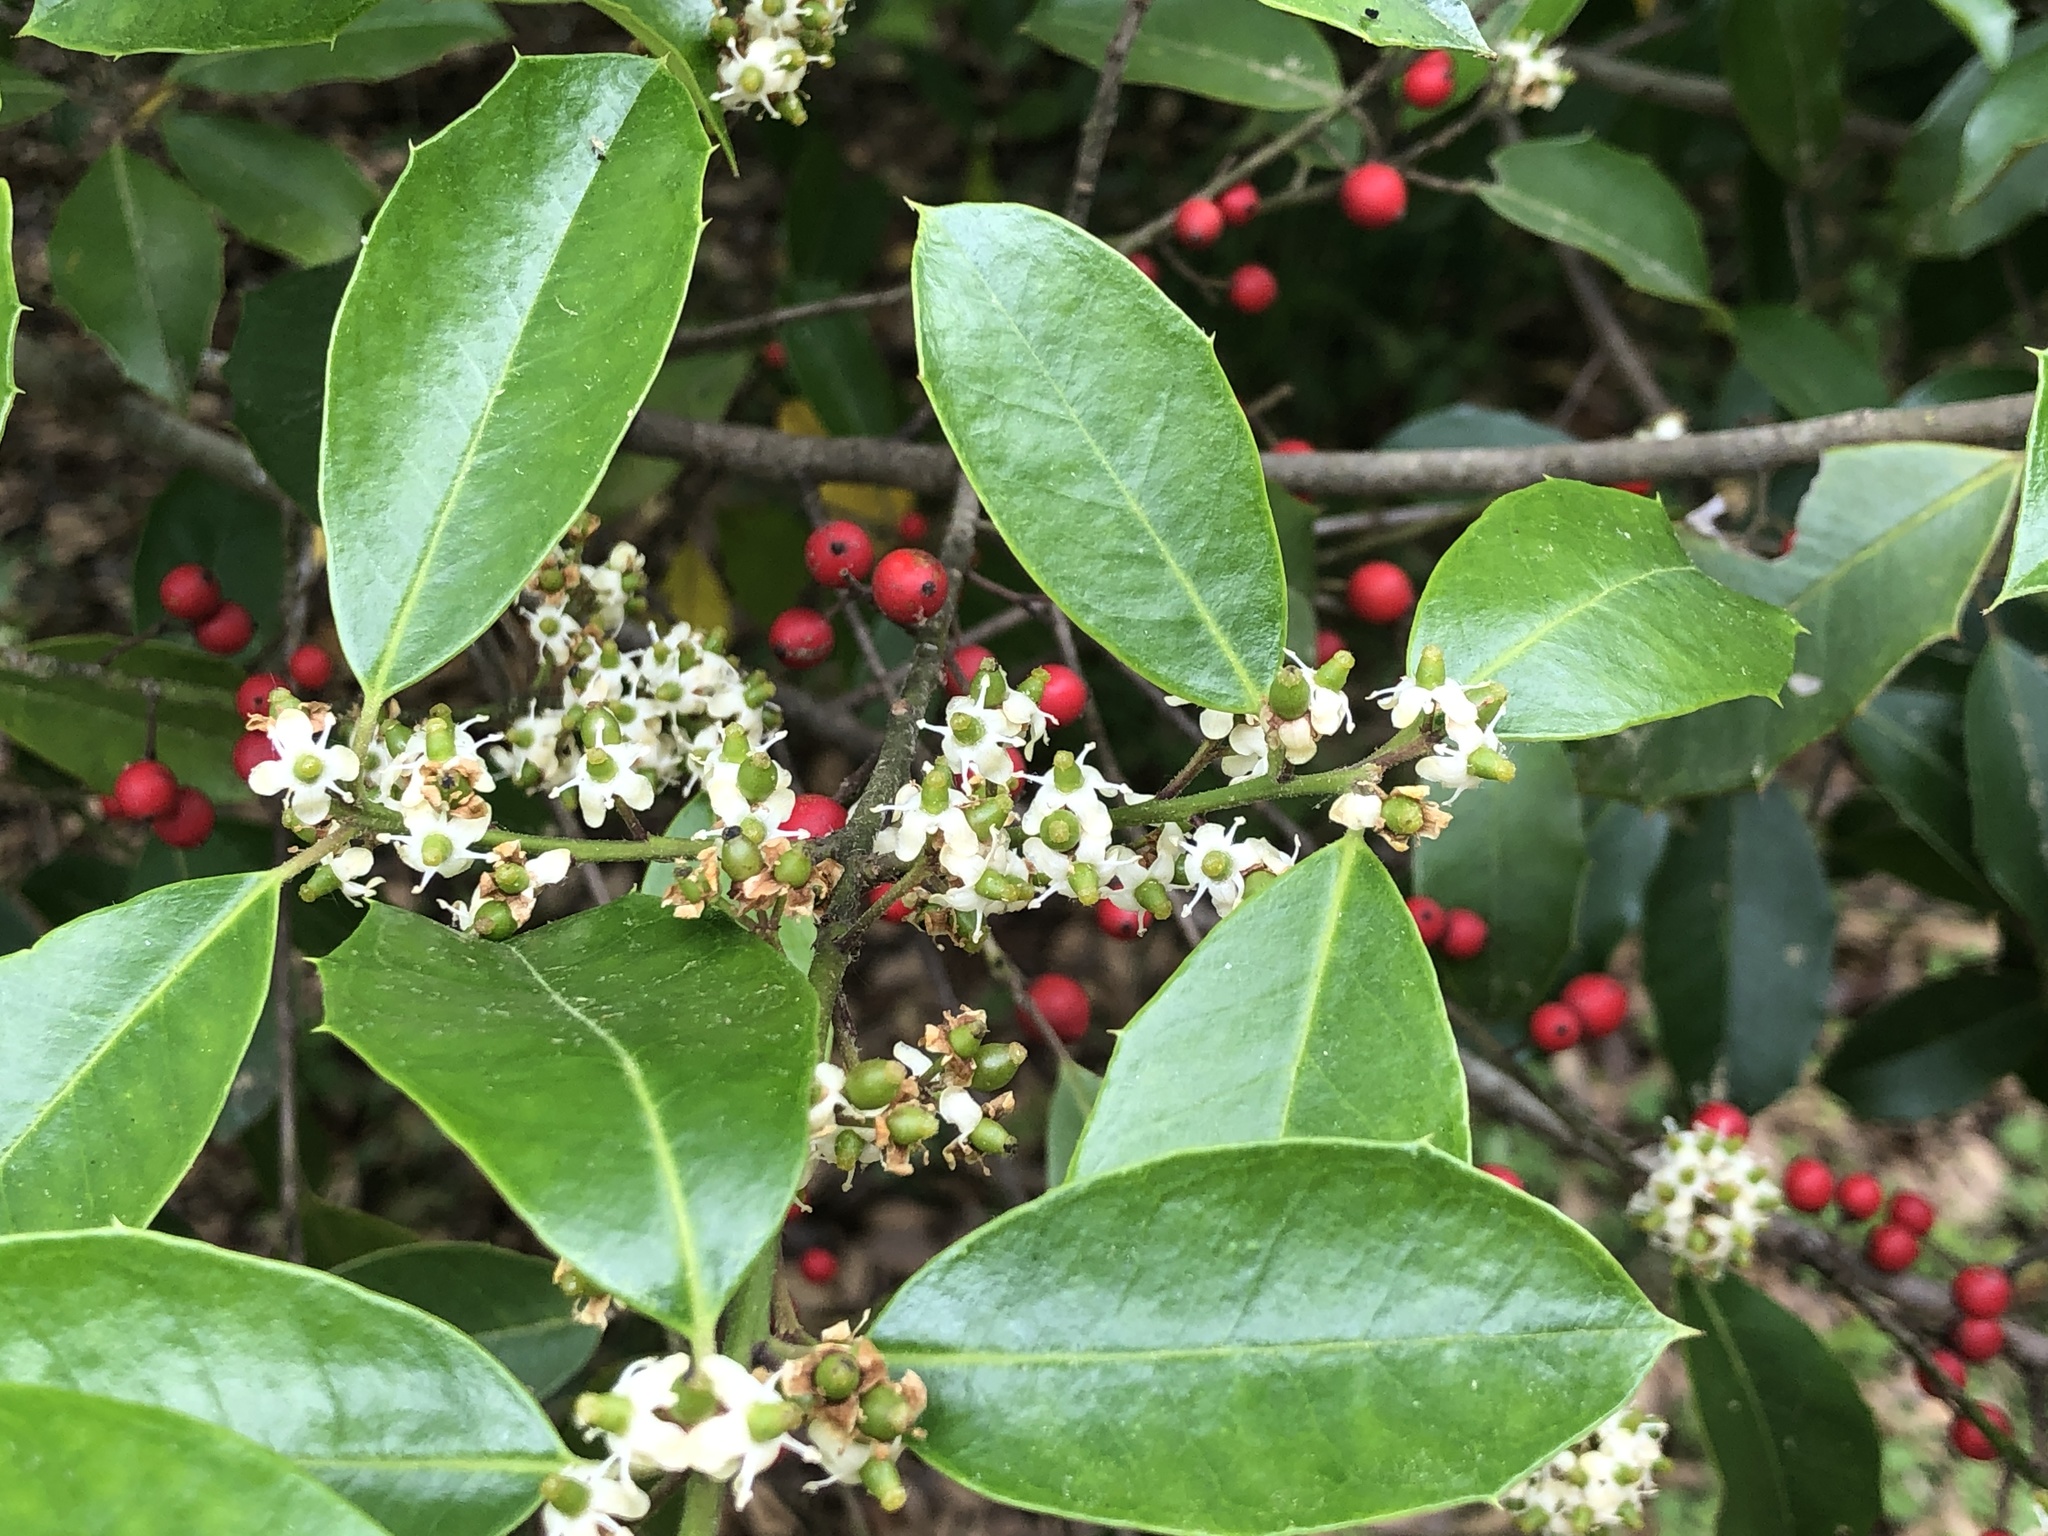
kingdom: Plantae
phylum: Tracheophyta
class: Magnoliopsida
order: Aquifoliales
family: Aquifoliaceae
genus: Ilex
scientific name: Ilex opaca
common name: American holly
